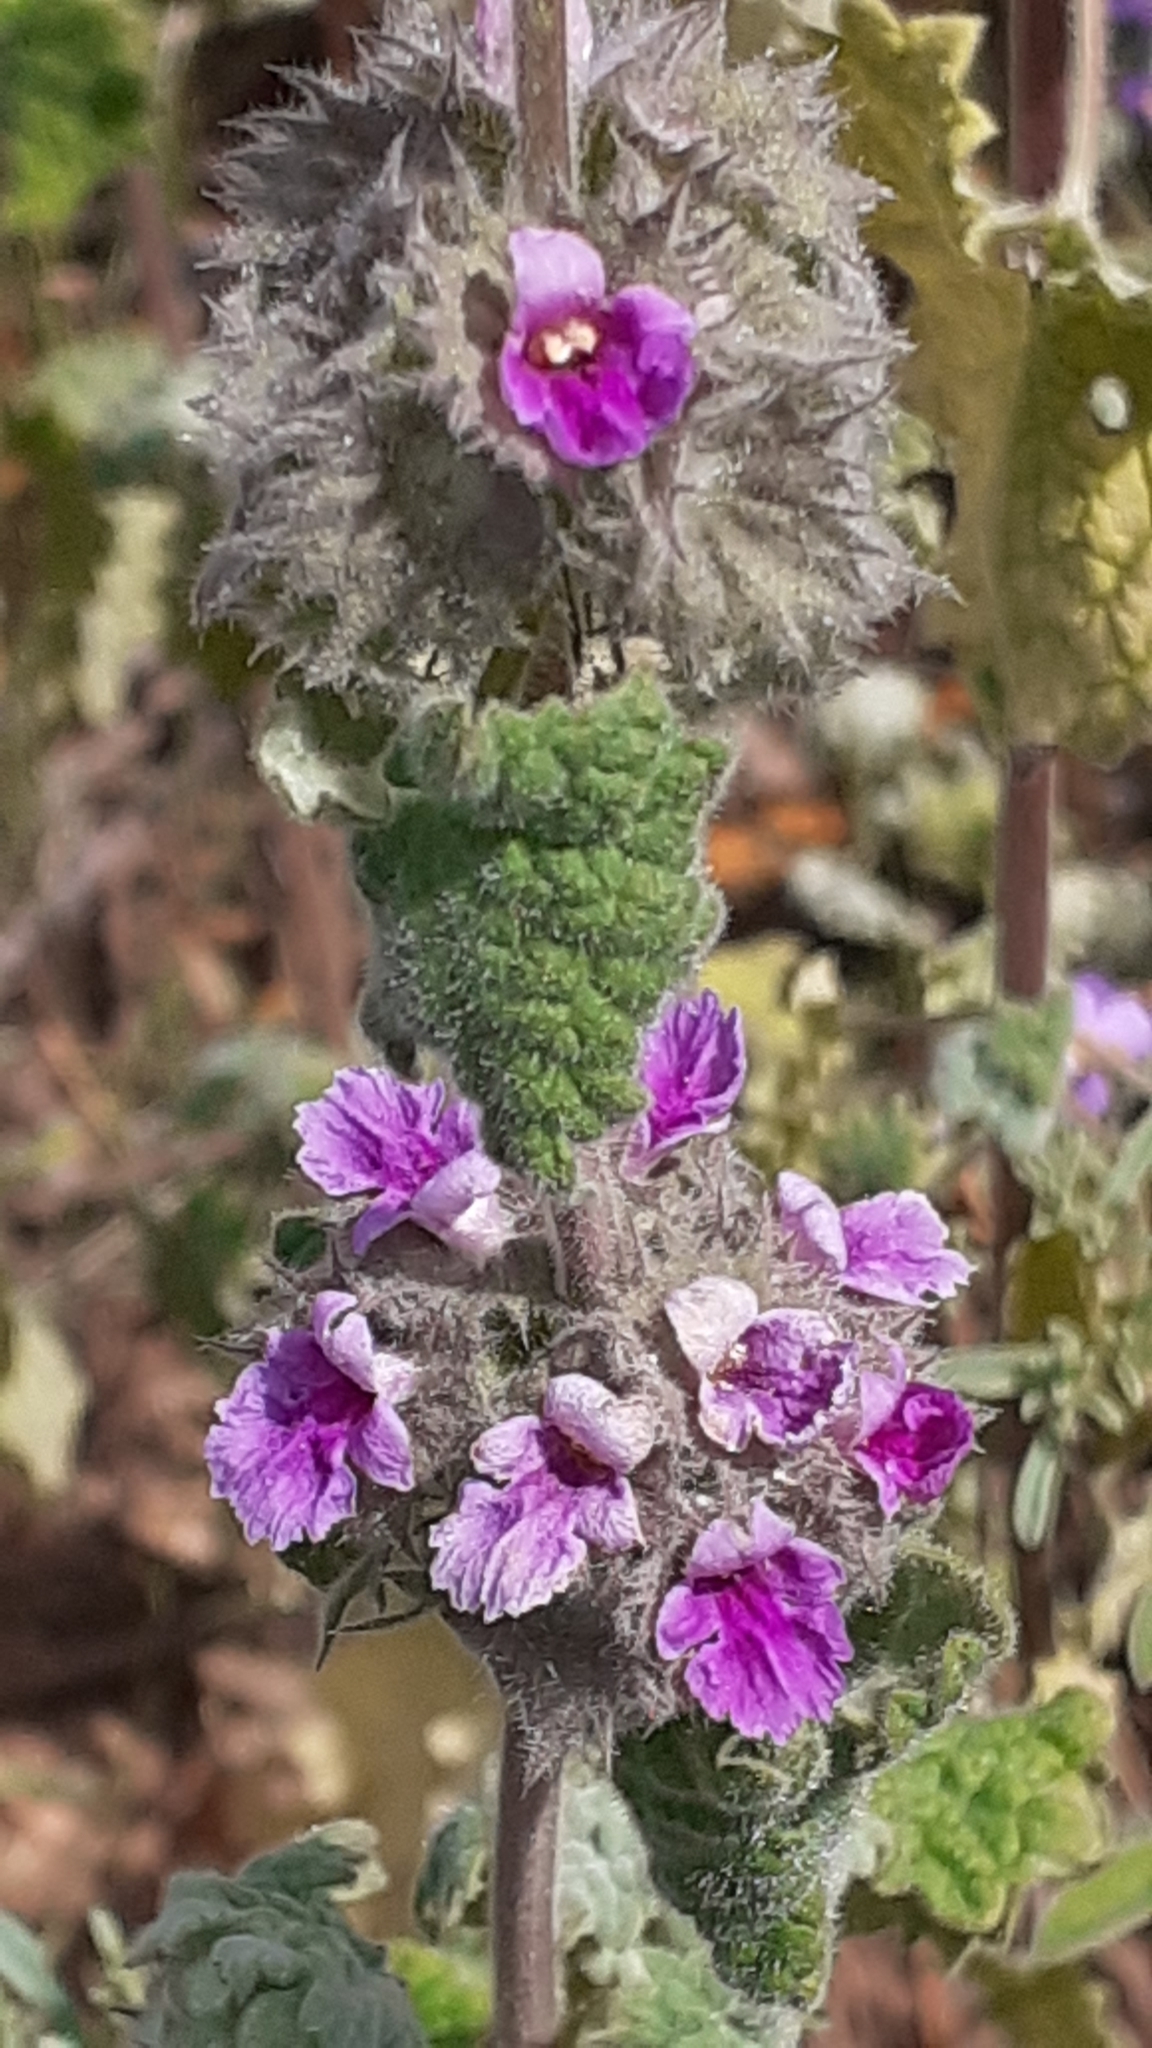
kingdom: Plantae
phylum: Tracheophyta
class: Magnoliopsida
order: Lamiales
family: Lamiaceae
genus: Pseudodictamnus
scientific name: Pseudodictamnus africanus
